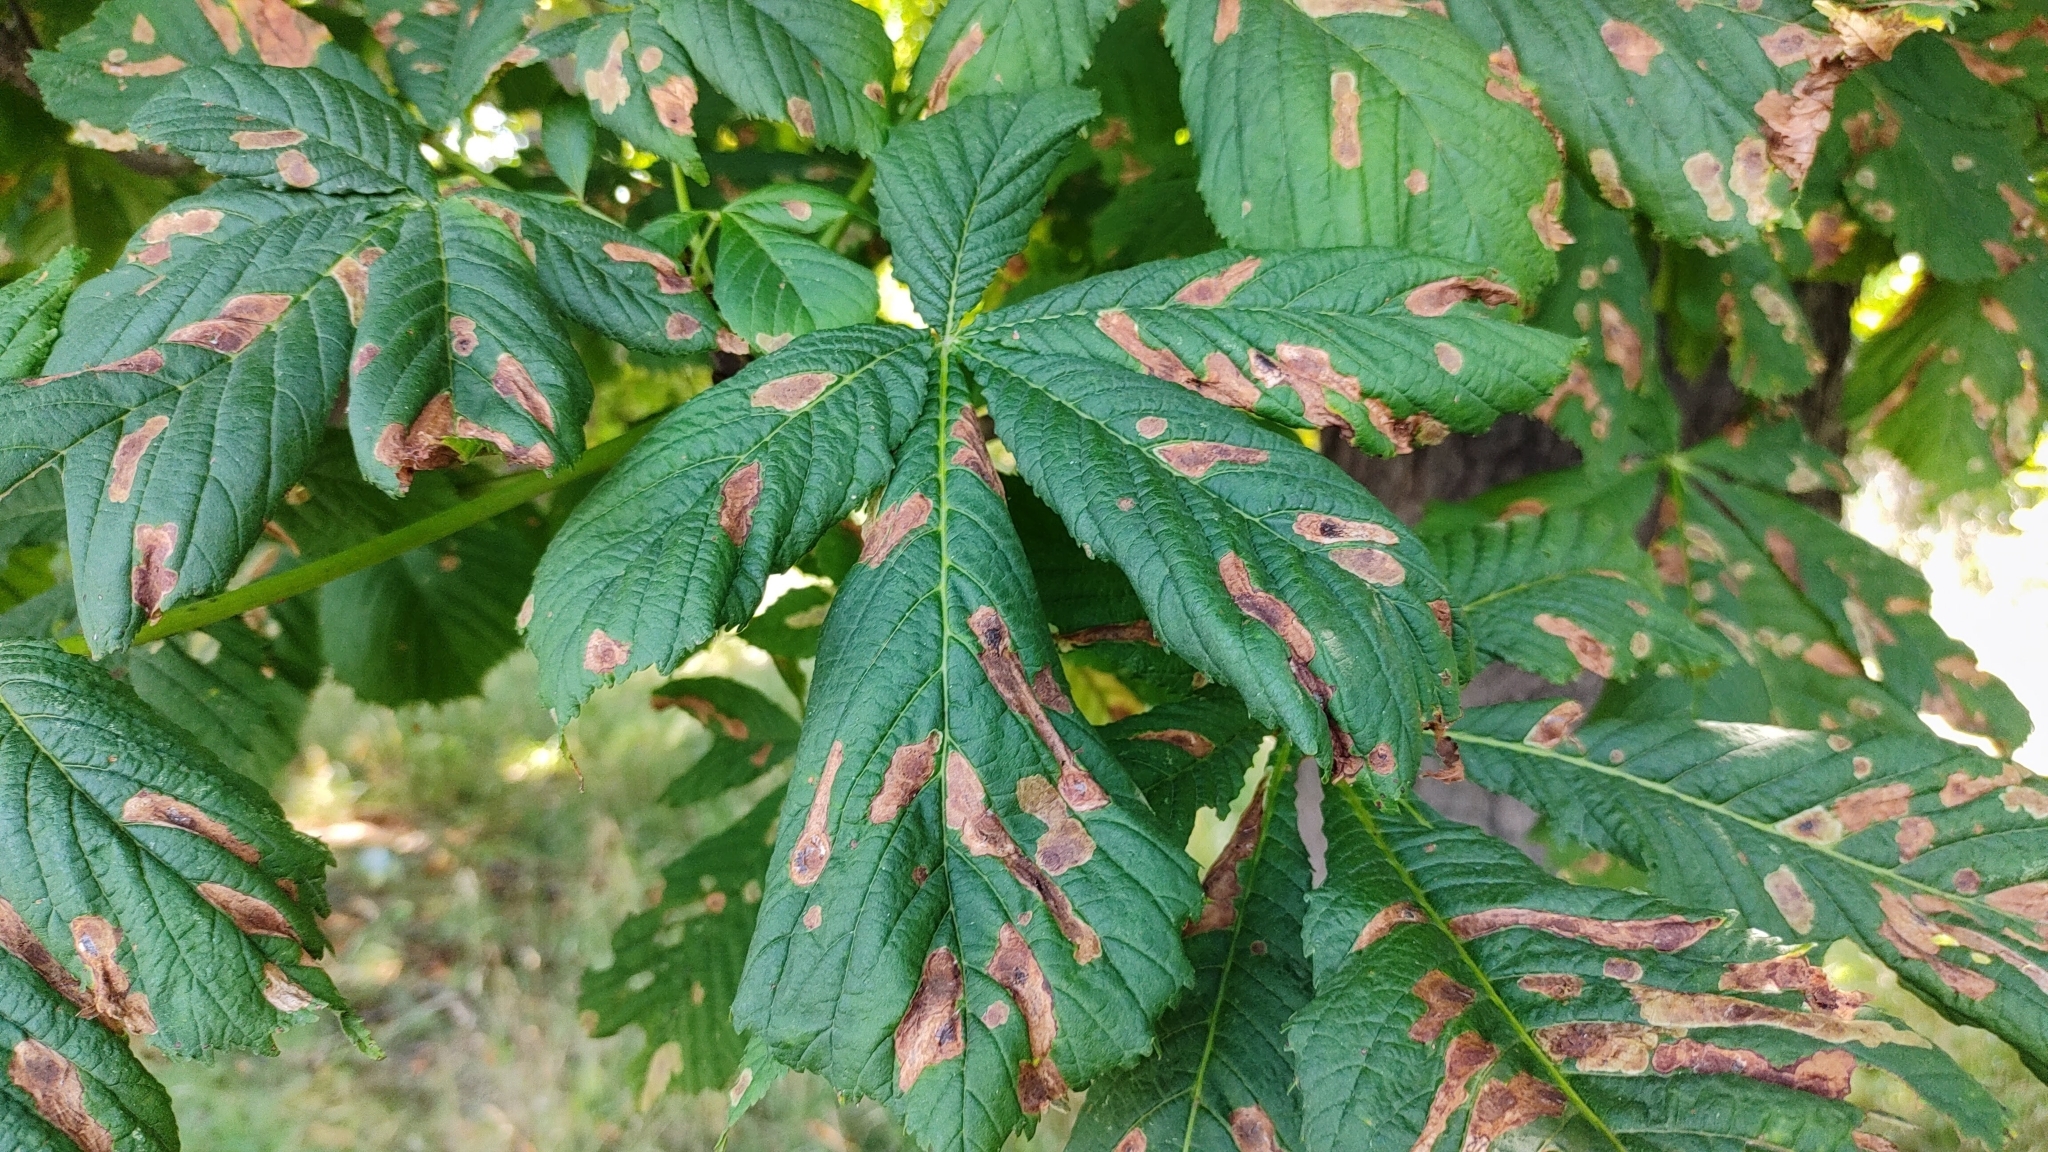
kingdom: Animalia
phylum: Arthropoda
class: Insecta
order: Lepidoptera
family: Gracillariidae
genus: Cameraria
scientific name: Cameraria ohridella
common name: Horse-chestnut leaf-miner
